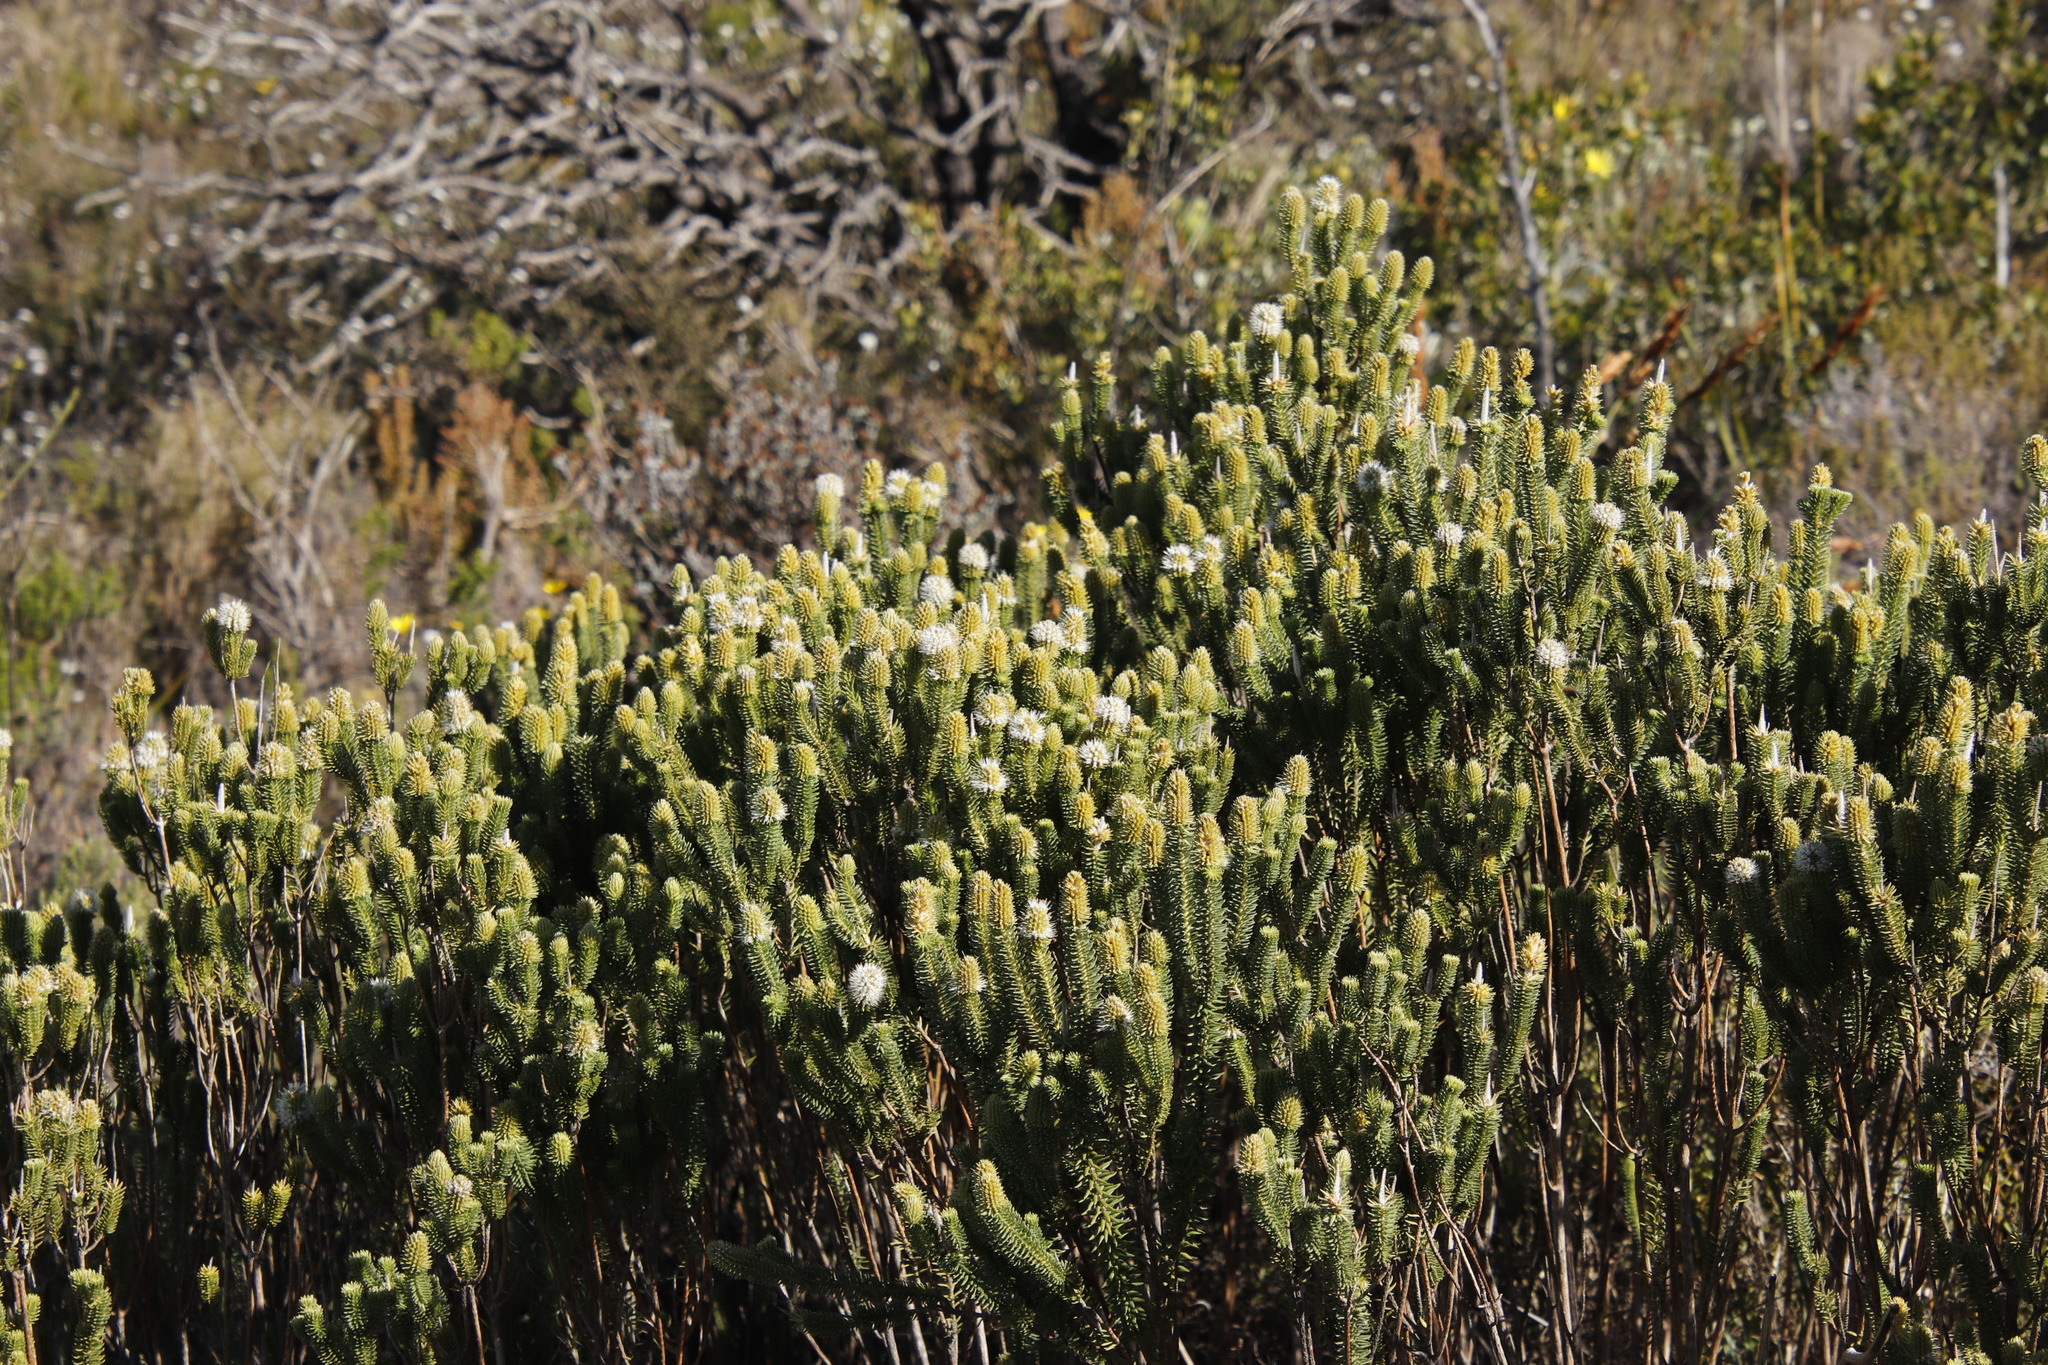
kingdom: Plantae
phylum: Tracheophyta
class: Magnoliopsida
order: Lamiales
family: Stilbaceae
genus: Stilbe
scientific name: Stilbe vestita
